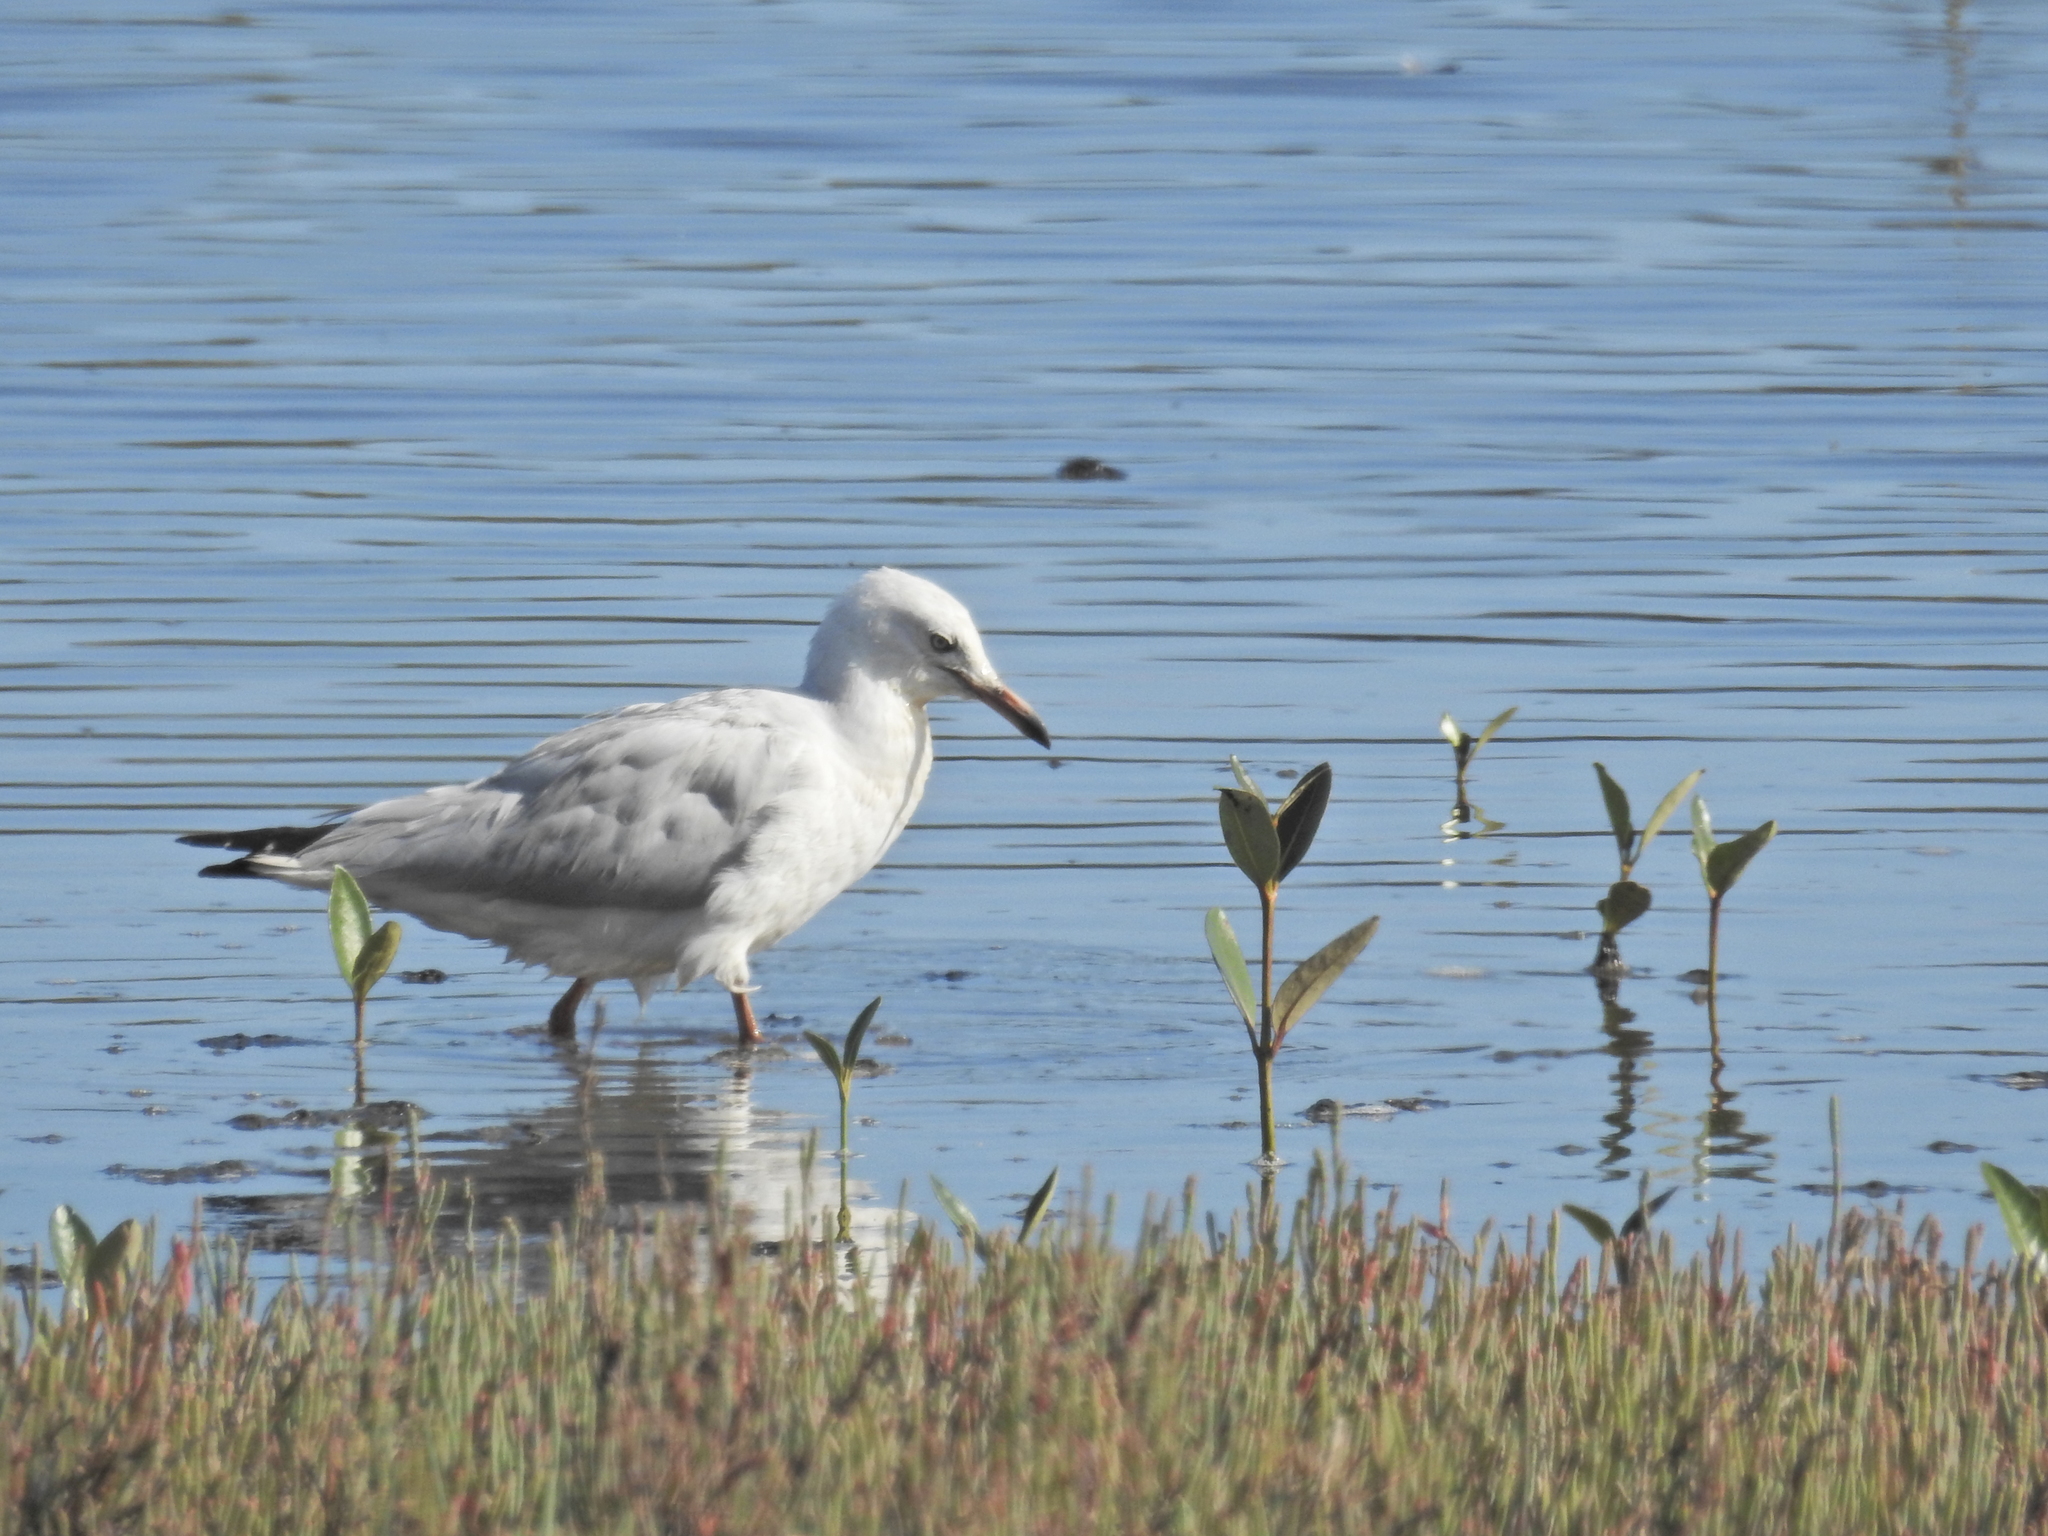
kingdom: Animalia
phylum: Chordata
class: Aves
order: Charadriiformes
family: Laridae
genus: Chroicocephalus
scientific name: Chroicocephalus novaehollandiae
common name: Silver gull
